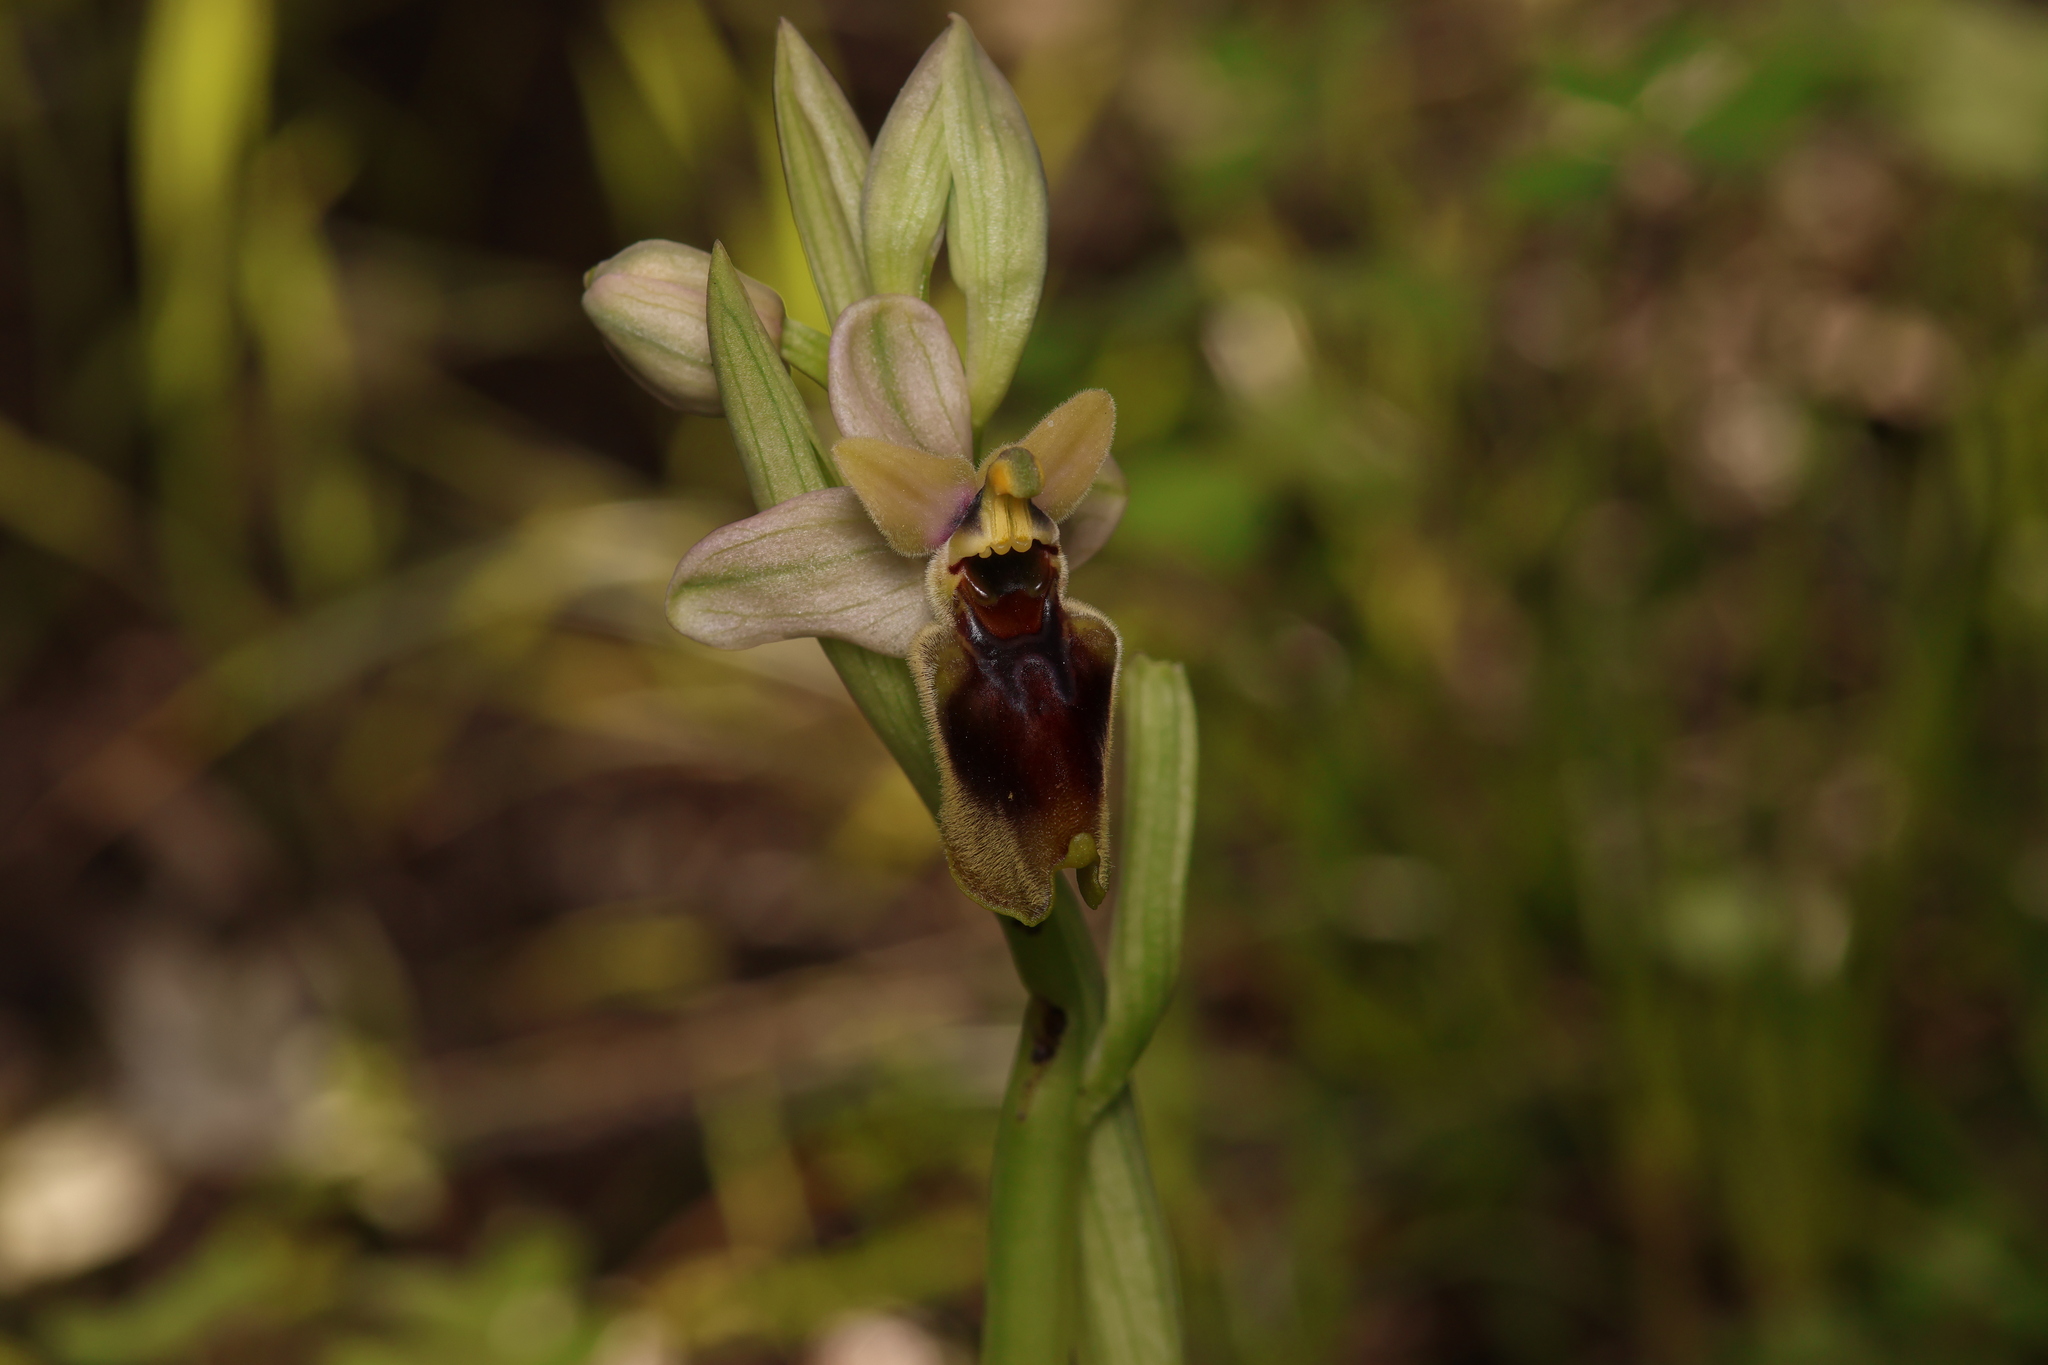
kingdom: Plantae
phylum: Tracheophyta
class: Liliopsida
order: Asparagales
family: Orchidaceae
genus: Ophrys
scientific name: Ophrys tenthredinifera
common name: Sawfly orchid
